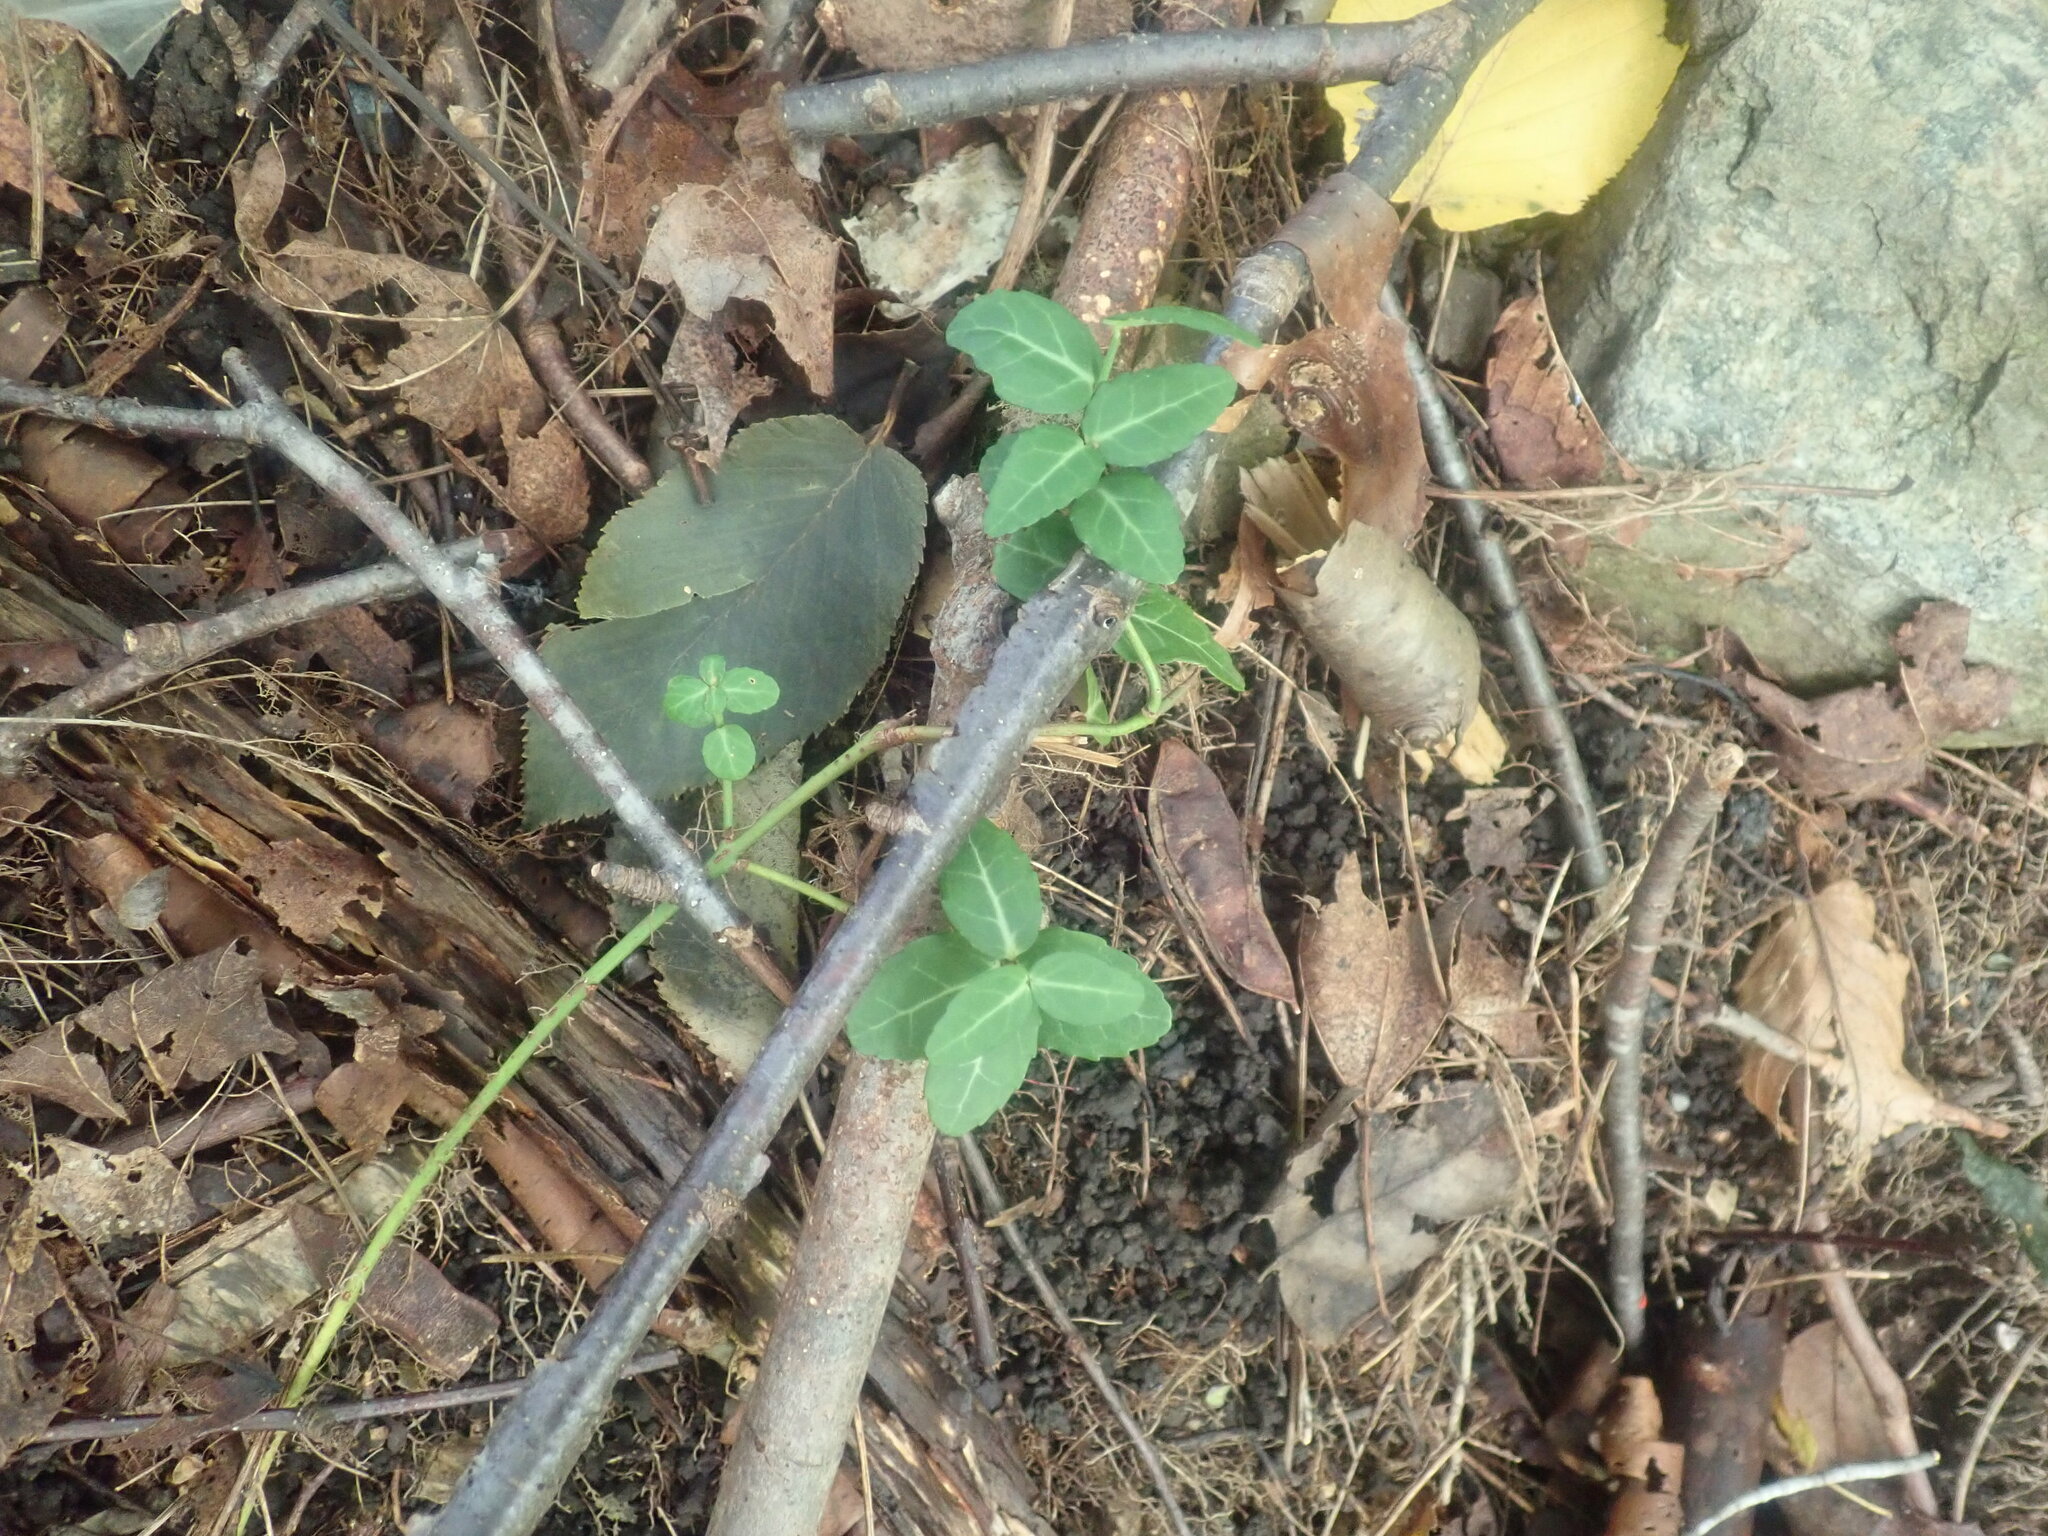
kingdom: Plantae
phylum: Tracheophyta
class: Magnoliopsida
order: Celastrales
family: Celastraceae
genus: Euonymus
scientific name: Euonymus fortunei
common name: Climbing euonymus
